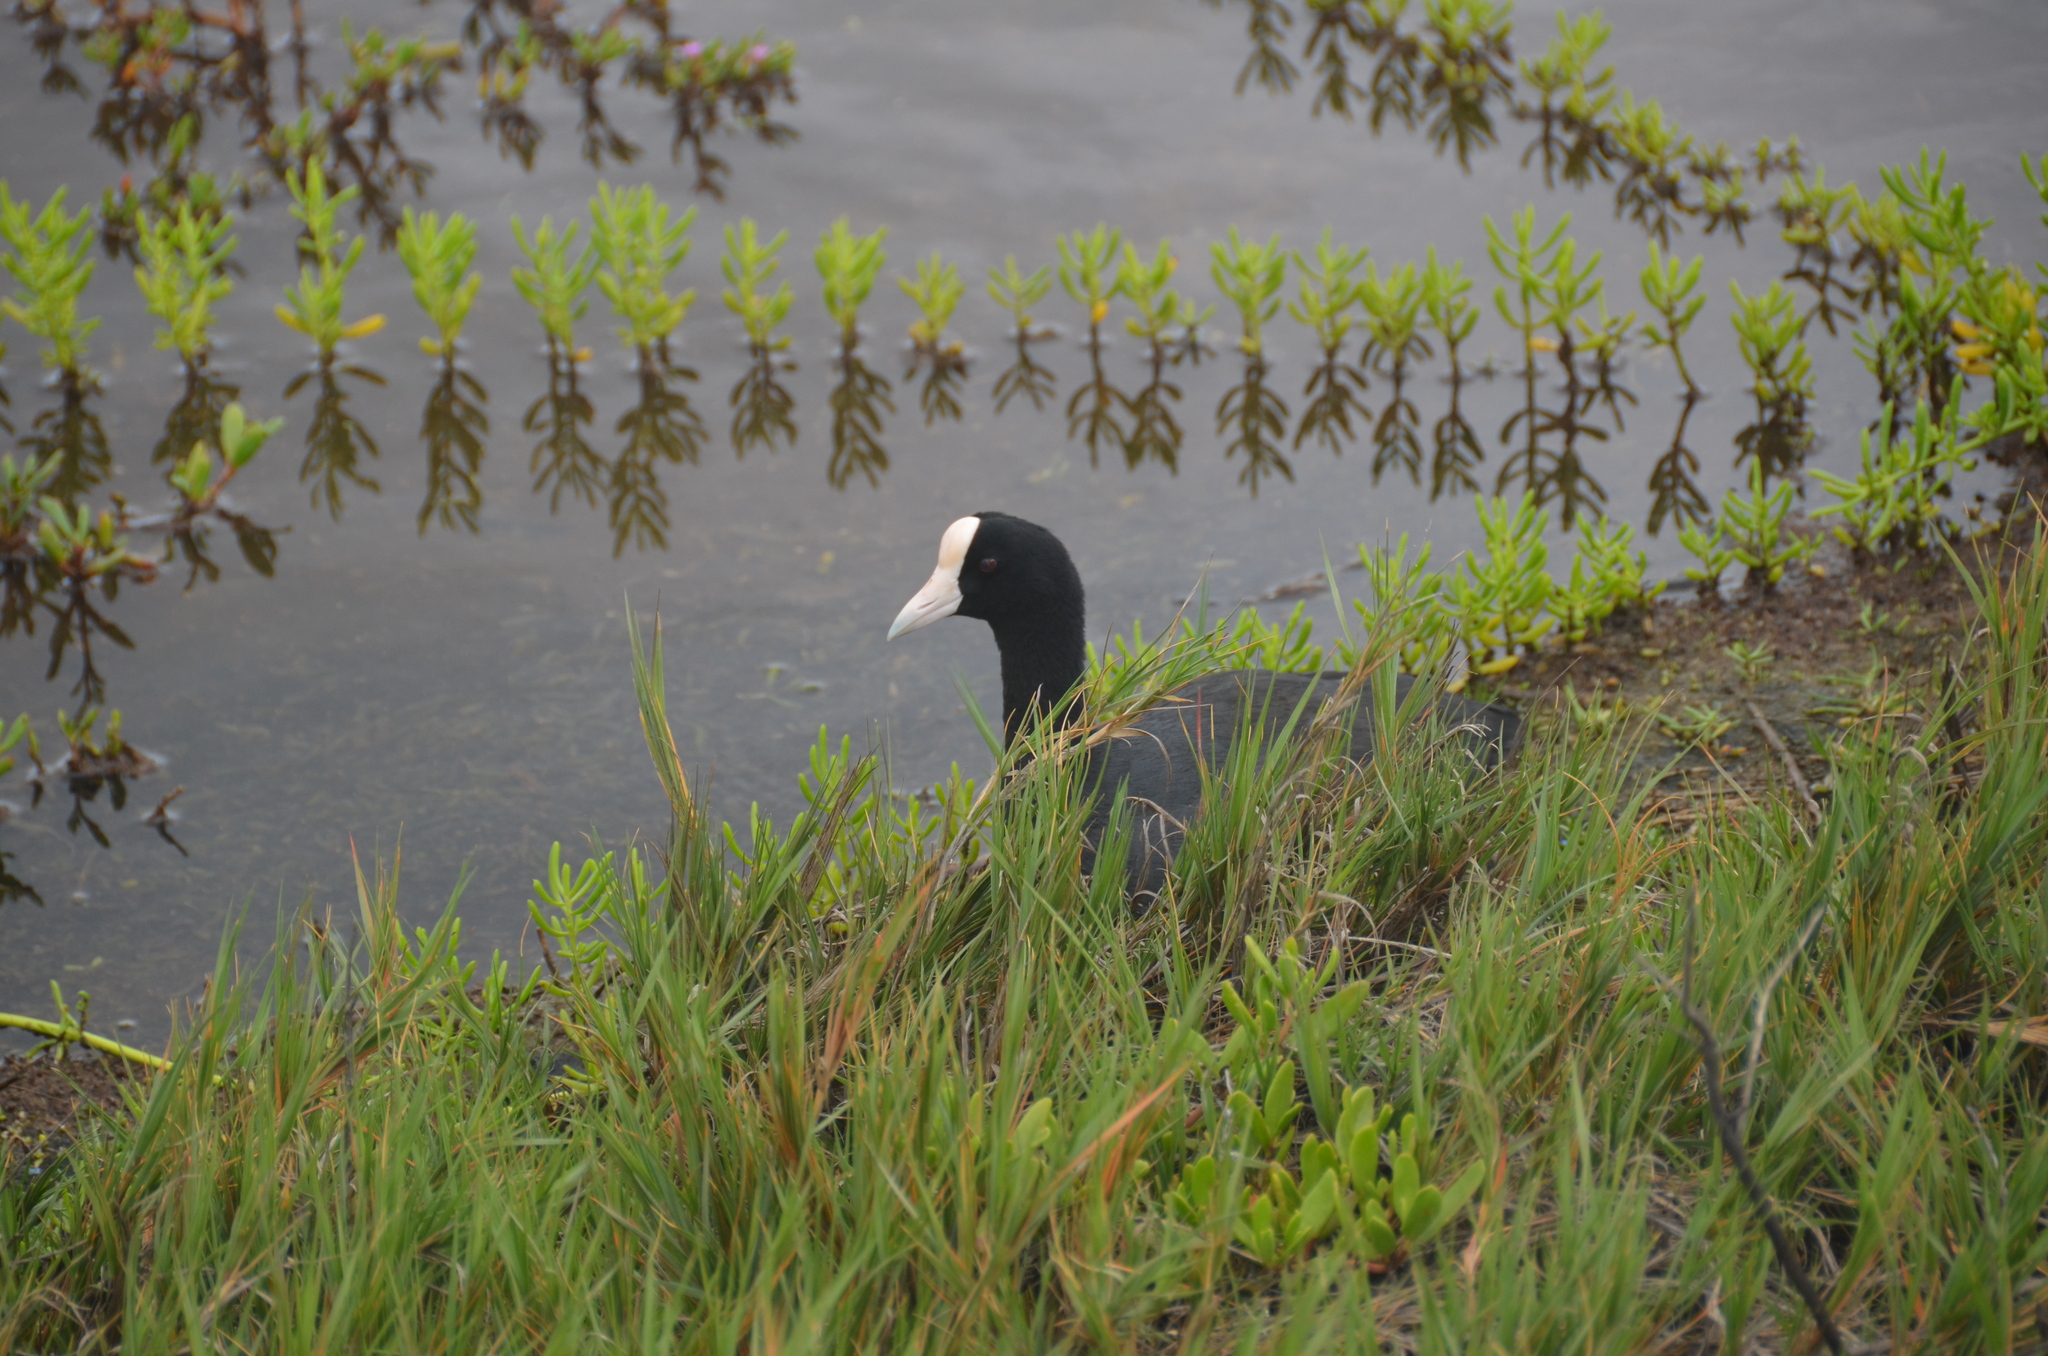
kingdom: Animalia
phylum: Chordata
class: Aves
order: Gruiformes
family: Rallidae
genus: Fulica
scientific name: Fulica alai
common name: Hawaiian coot
